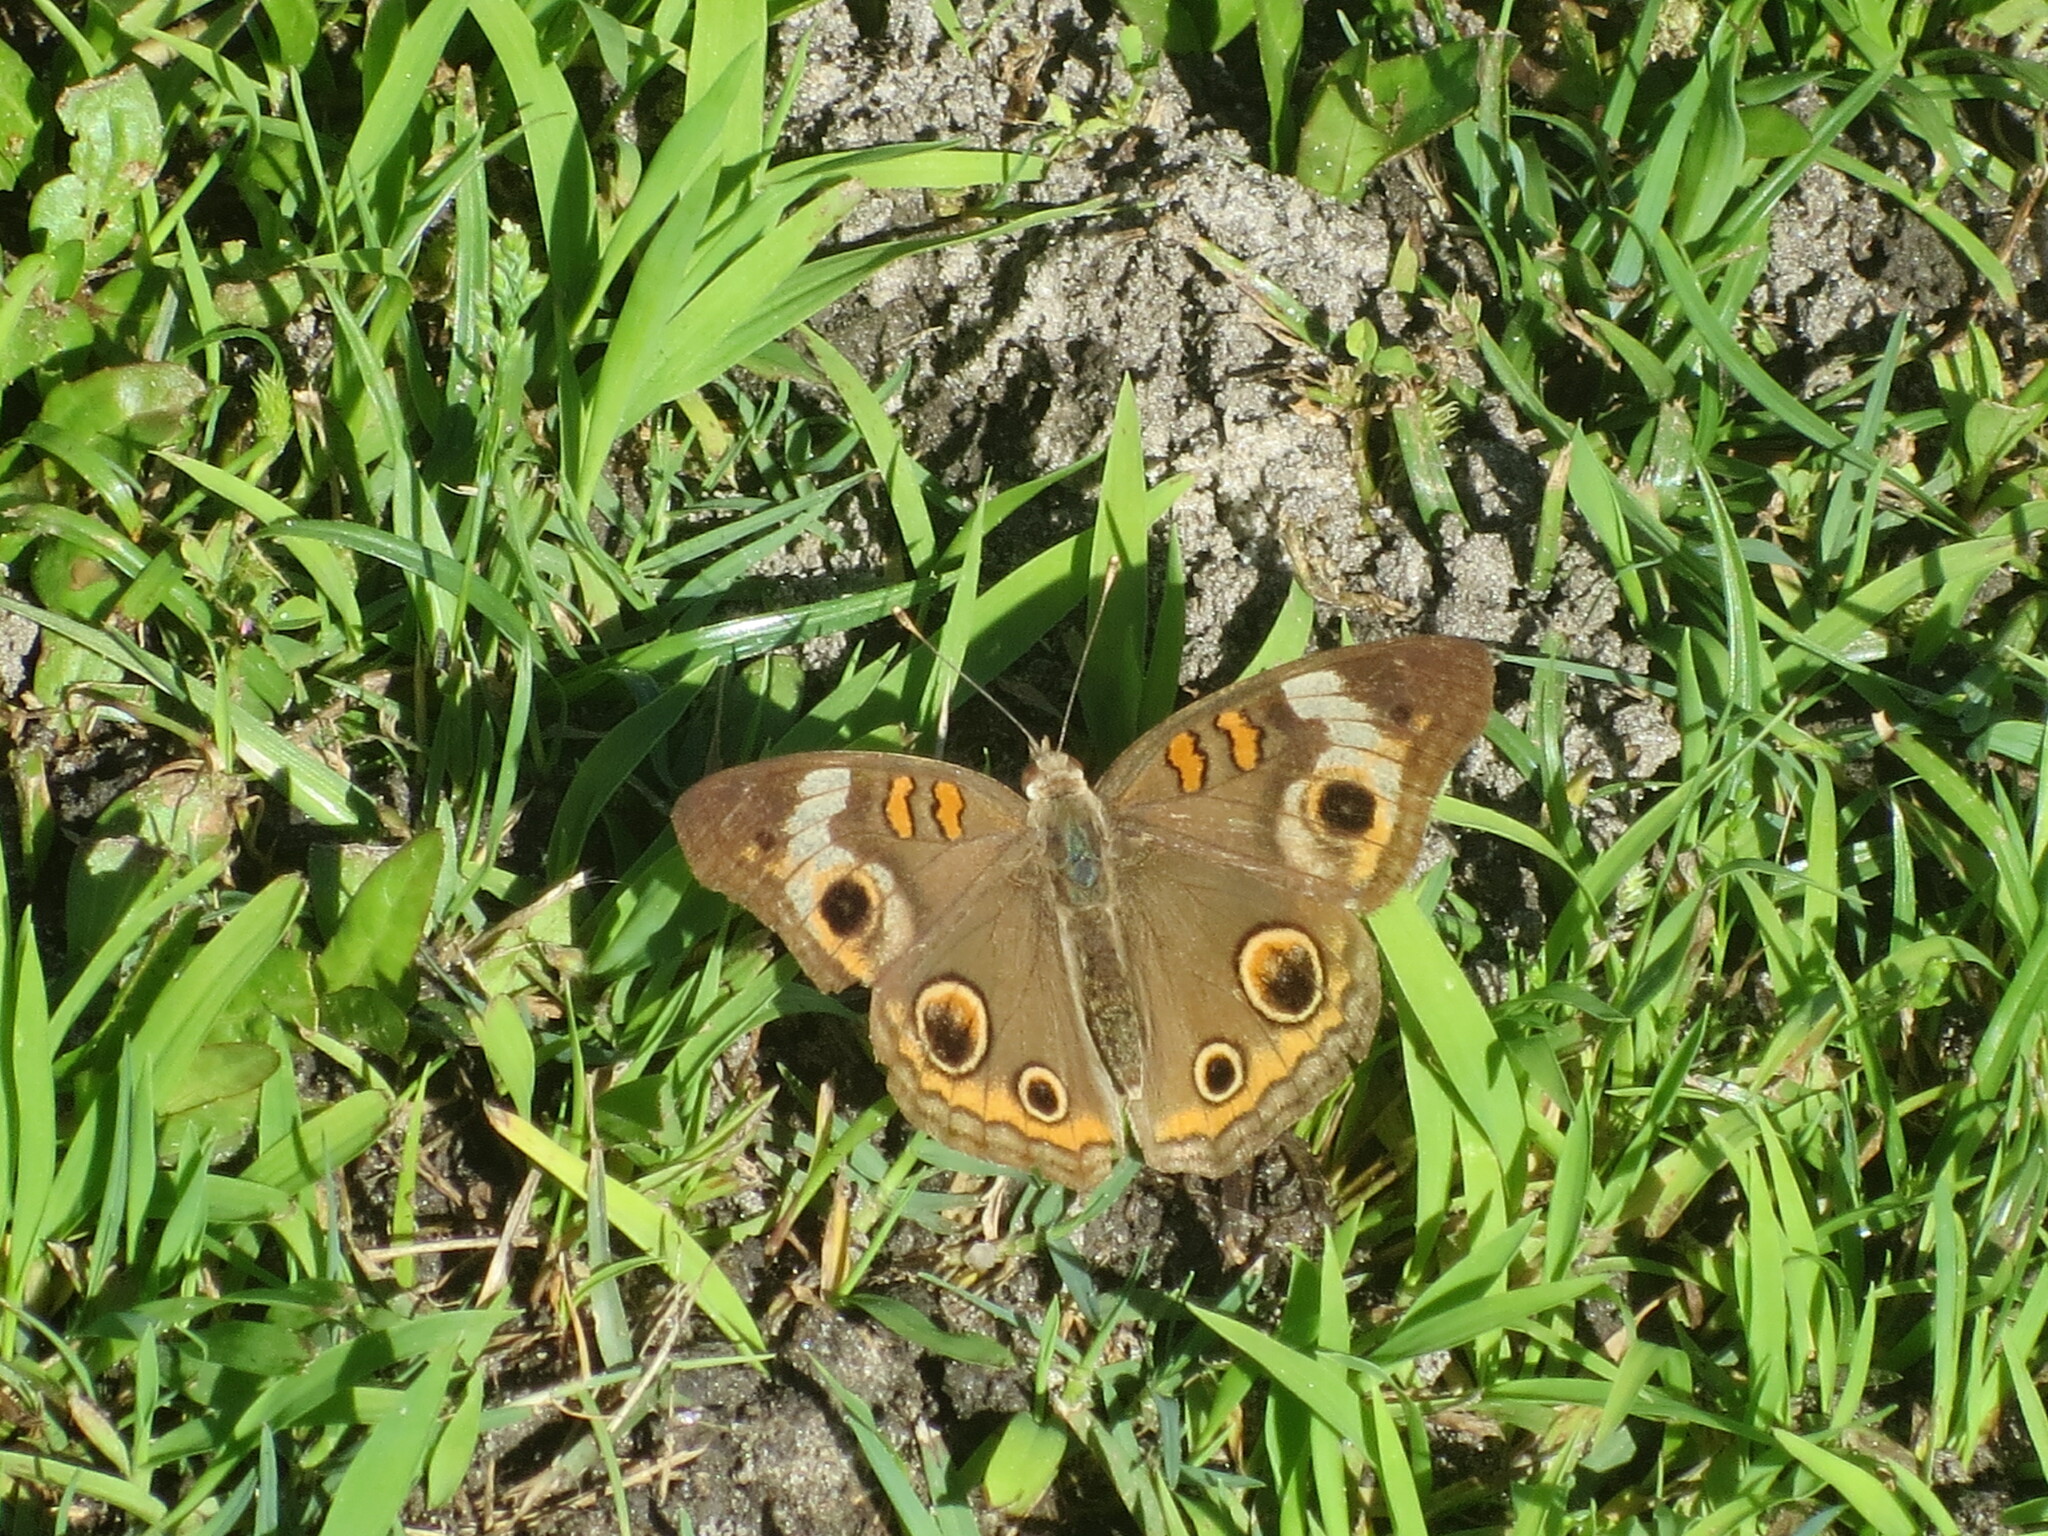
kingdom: Animalia
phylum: Arthropoda
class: Insecta
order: Lepidoptera
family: Nymphalidae
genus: Junonia
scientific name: Junonia coenia
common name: Common buckeye
